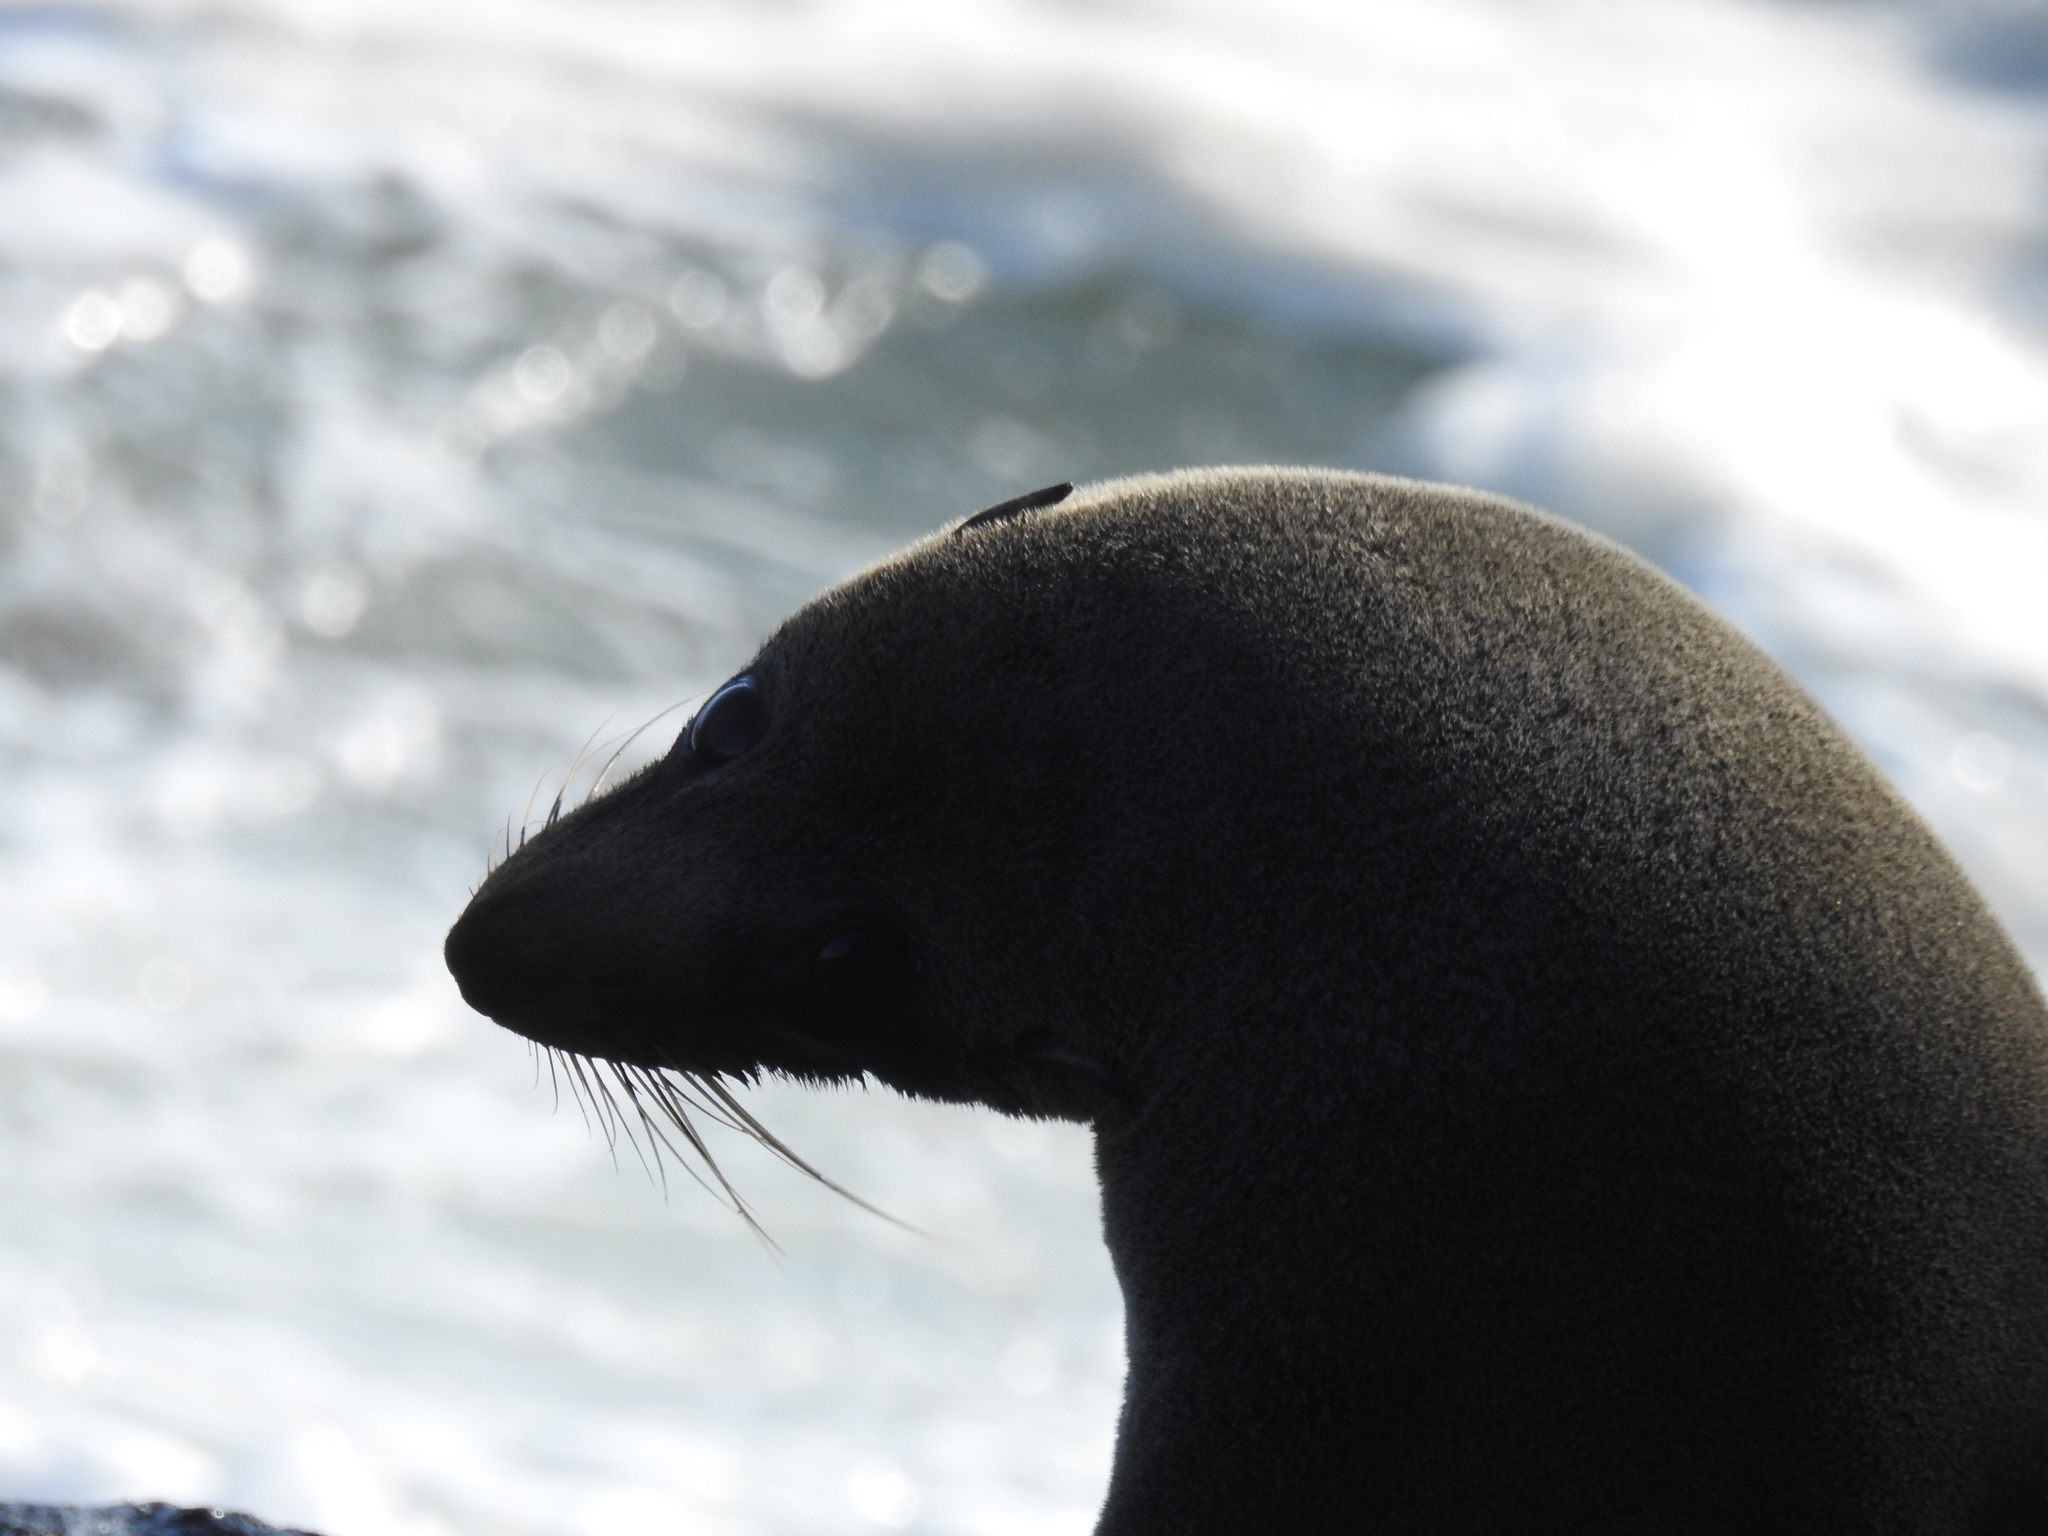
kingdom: Animalia
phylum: Chordata
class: Mammalia
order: Carnivora
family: Otariidae
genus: Arctocephalus
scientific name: Arctocephalus forsteri
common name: New zealand fur seal
